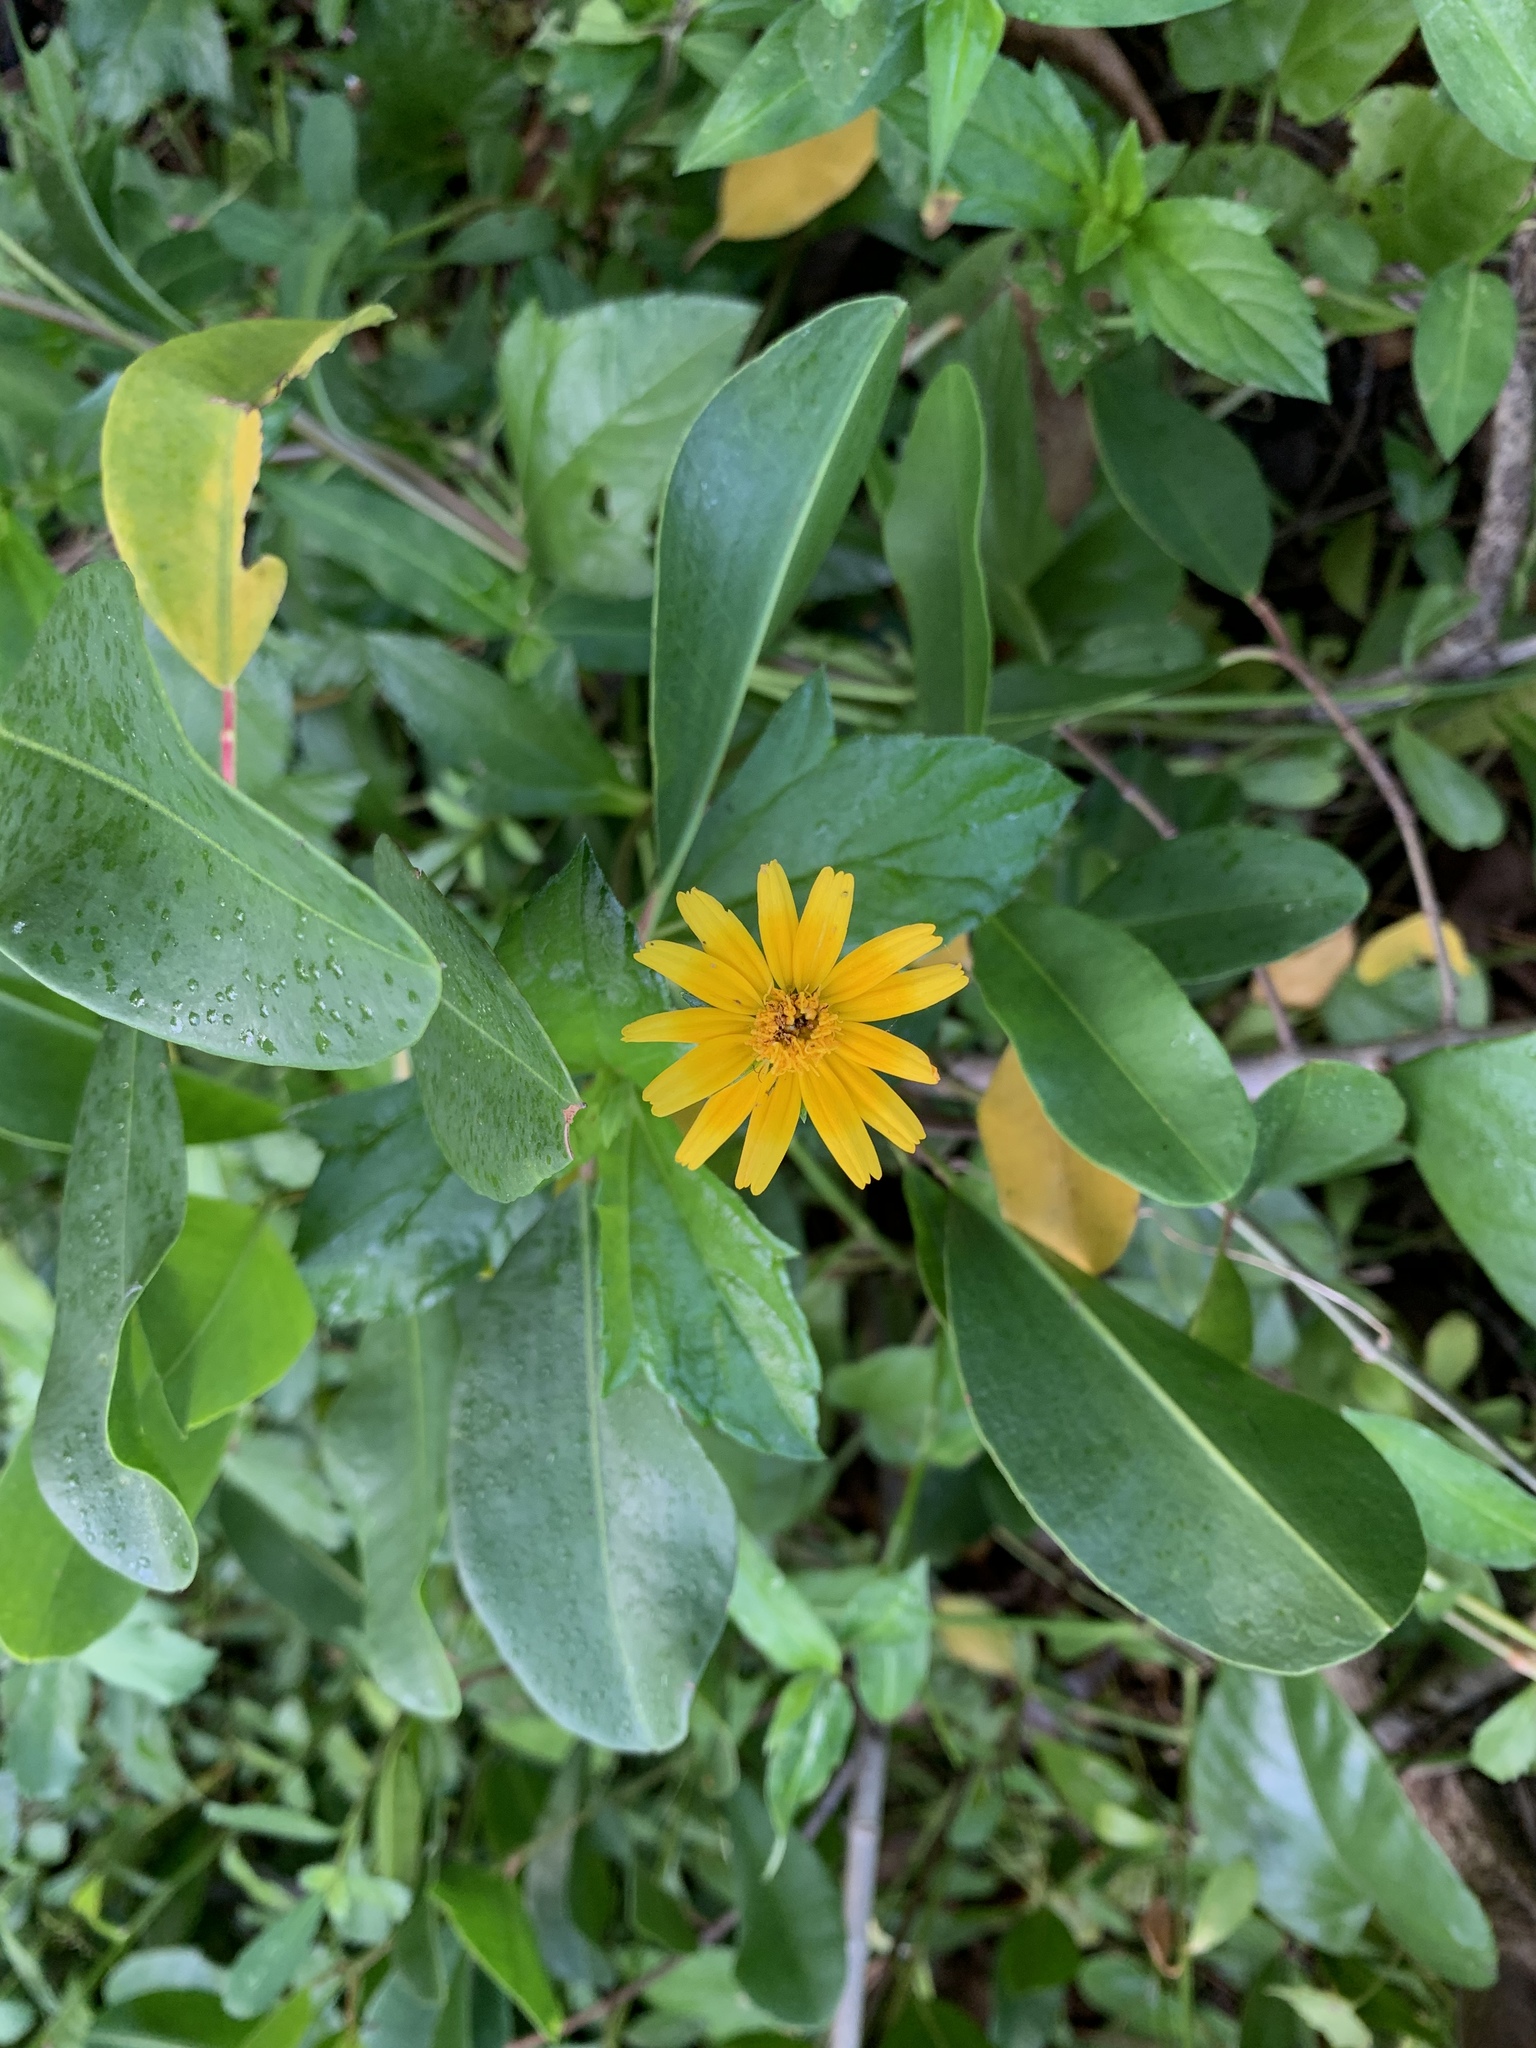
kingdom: Plantae
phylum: Tracheophyta
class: Magnoliopsida
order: Asterales
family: Asteraceae
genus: Sphagneticola
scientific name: Sphagneticola trilobata
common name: Bay biscayne creeping-oxeye
